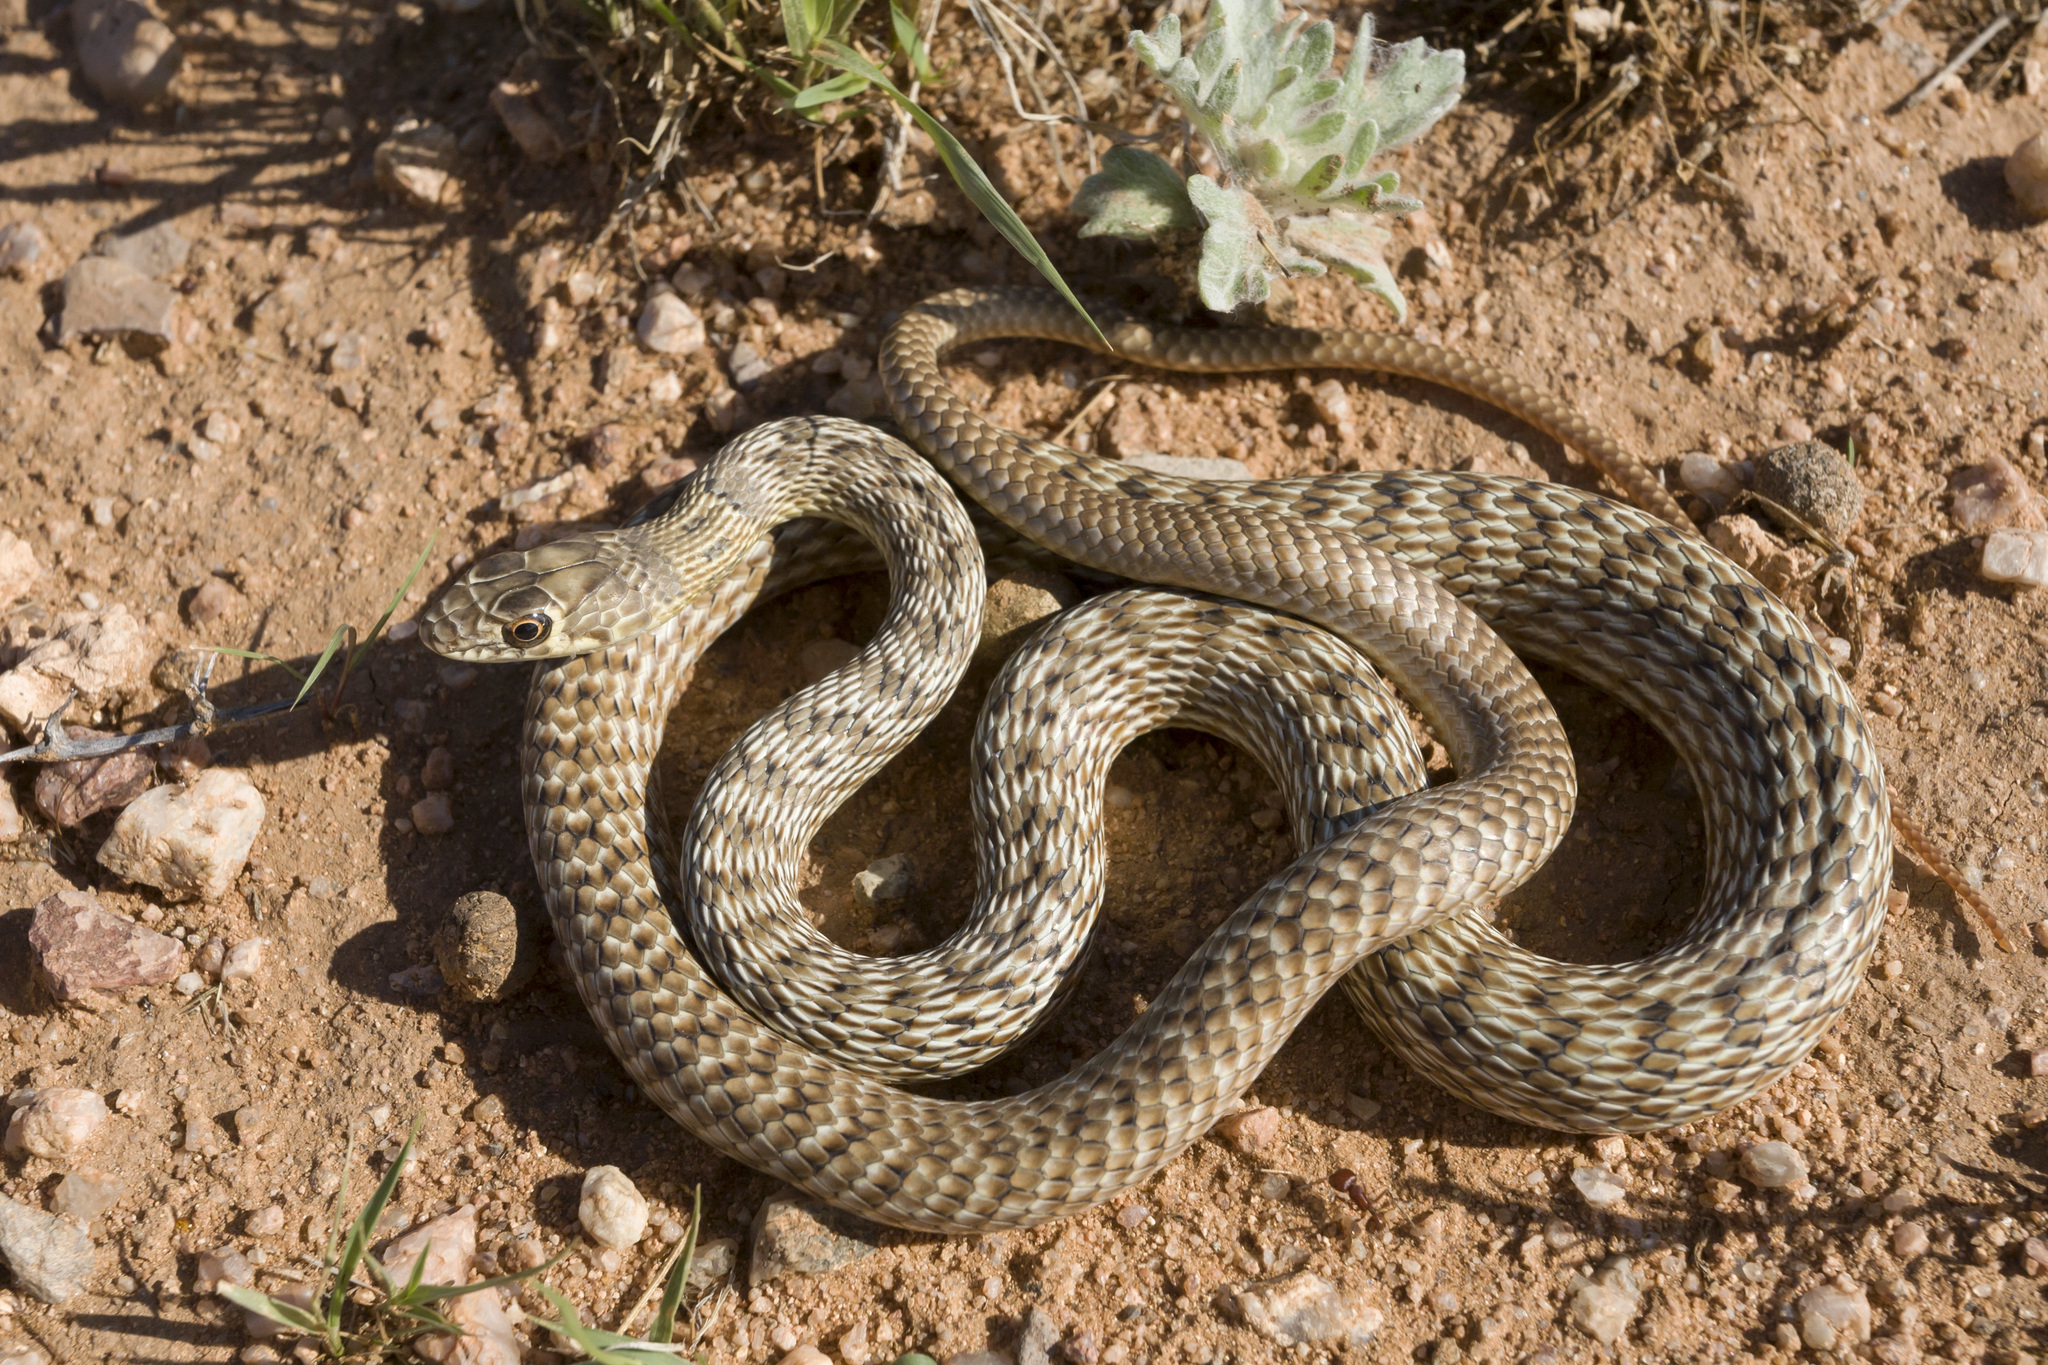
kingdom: Animalia
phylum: Chordata
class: Squamata
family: Colubridae
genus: Masticophis
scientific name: Masticophis flagellum
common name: Coachwhip
